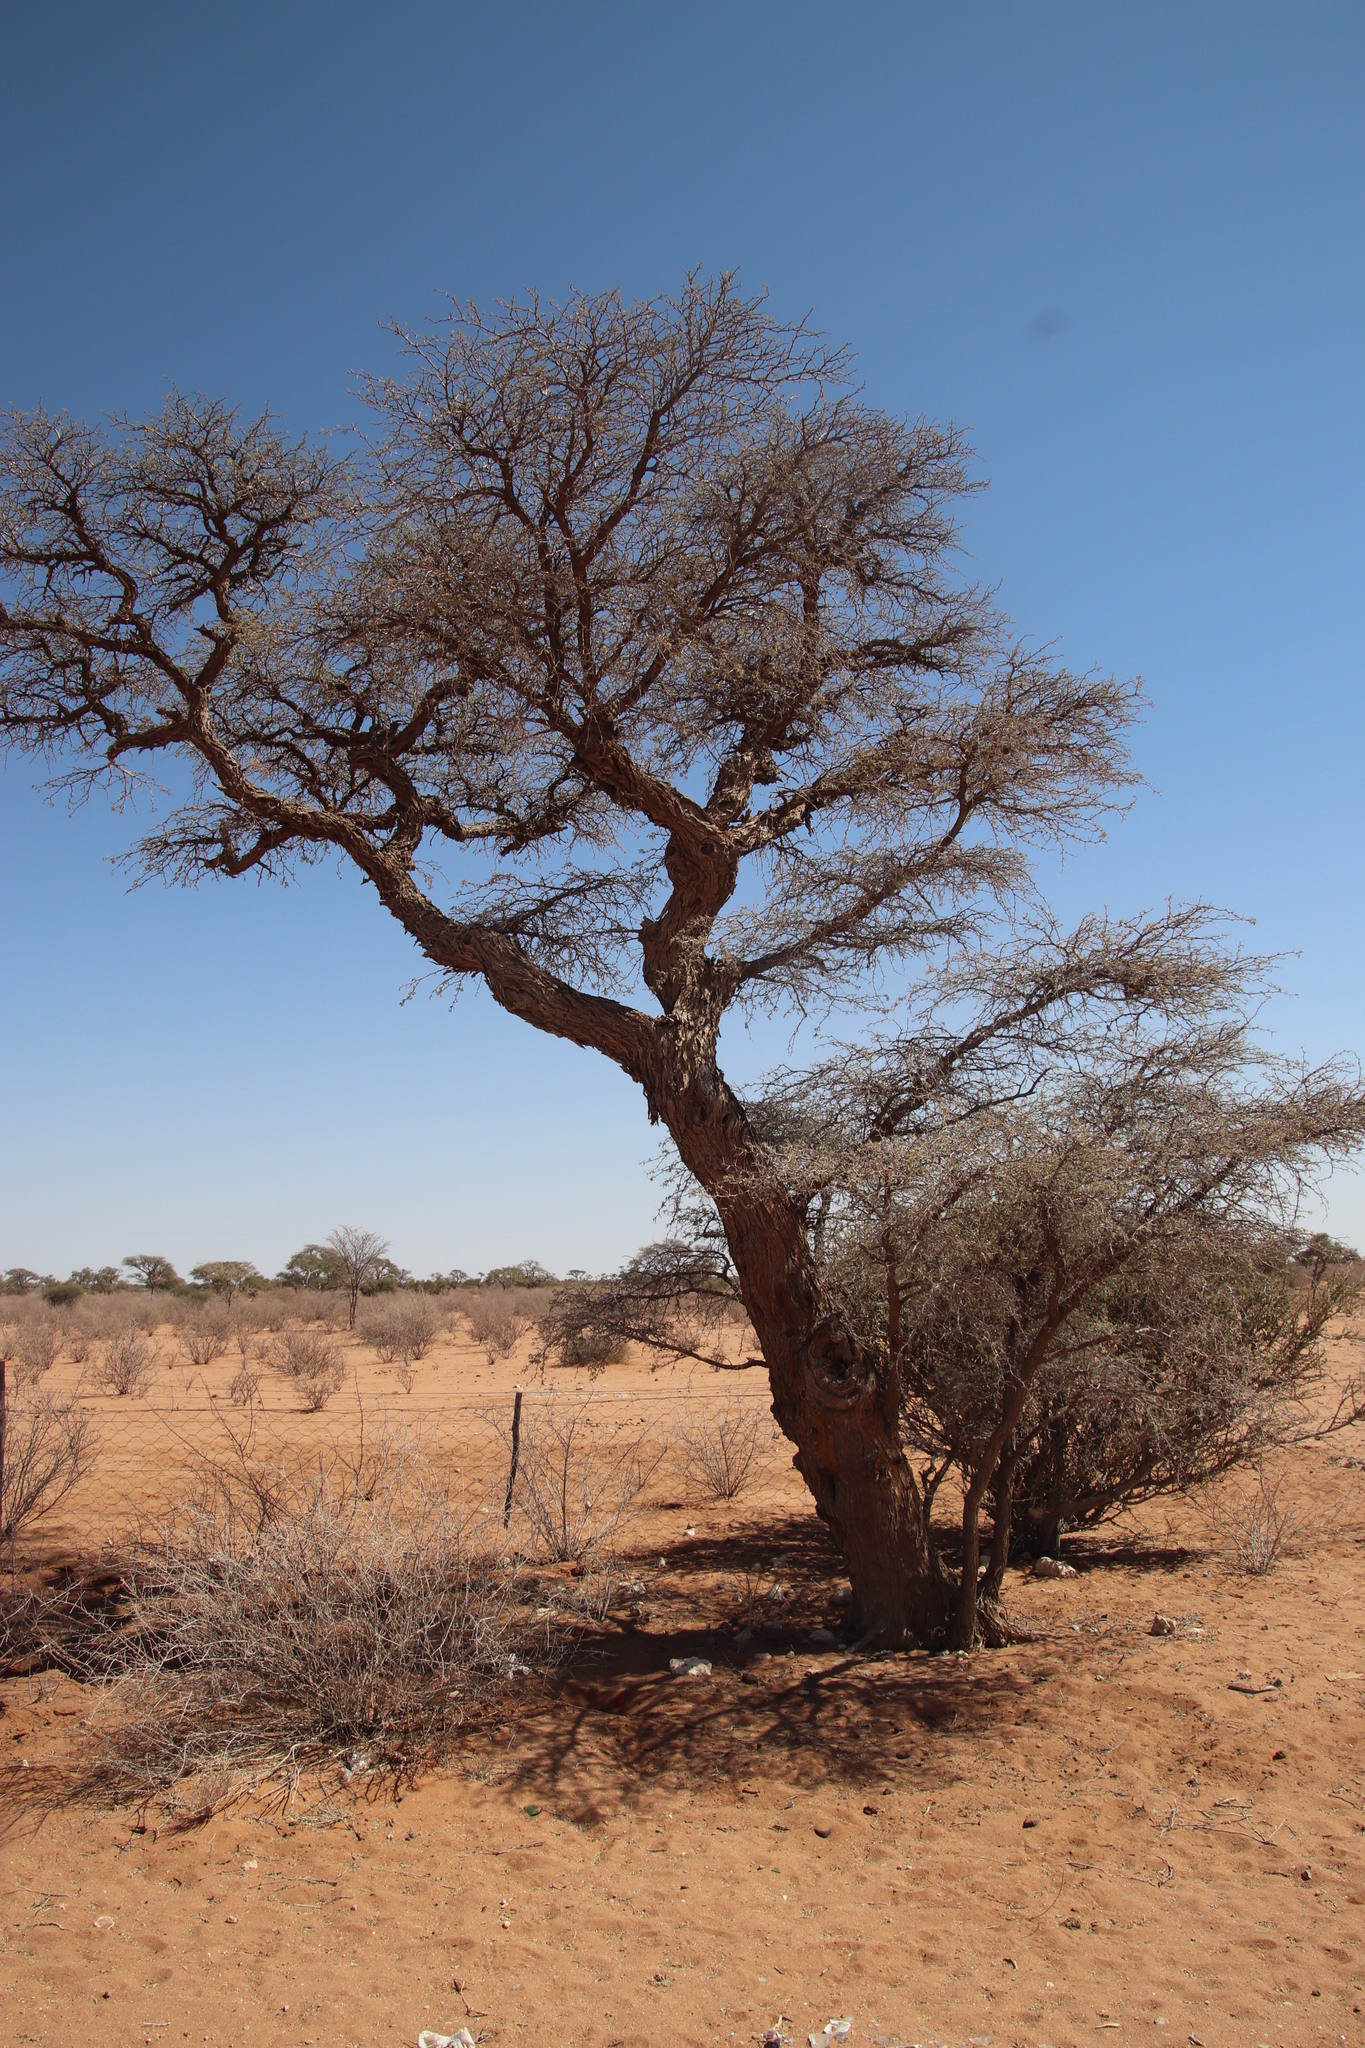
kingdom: Plantae
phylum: Tracheophyta
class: Magnoliopsida
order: Fabales
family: Fabaceae
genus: Vachellia
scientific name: Vachellia erioloba
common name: Camel thorn
